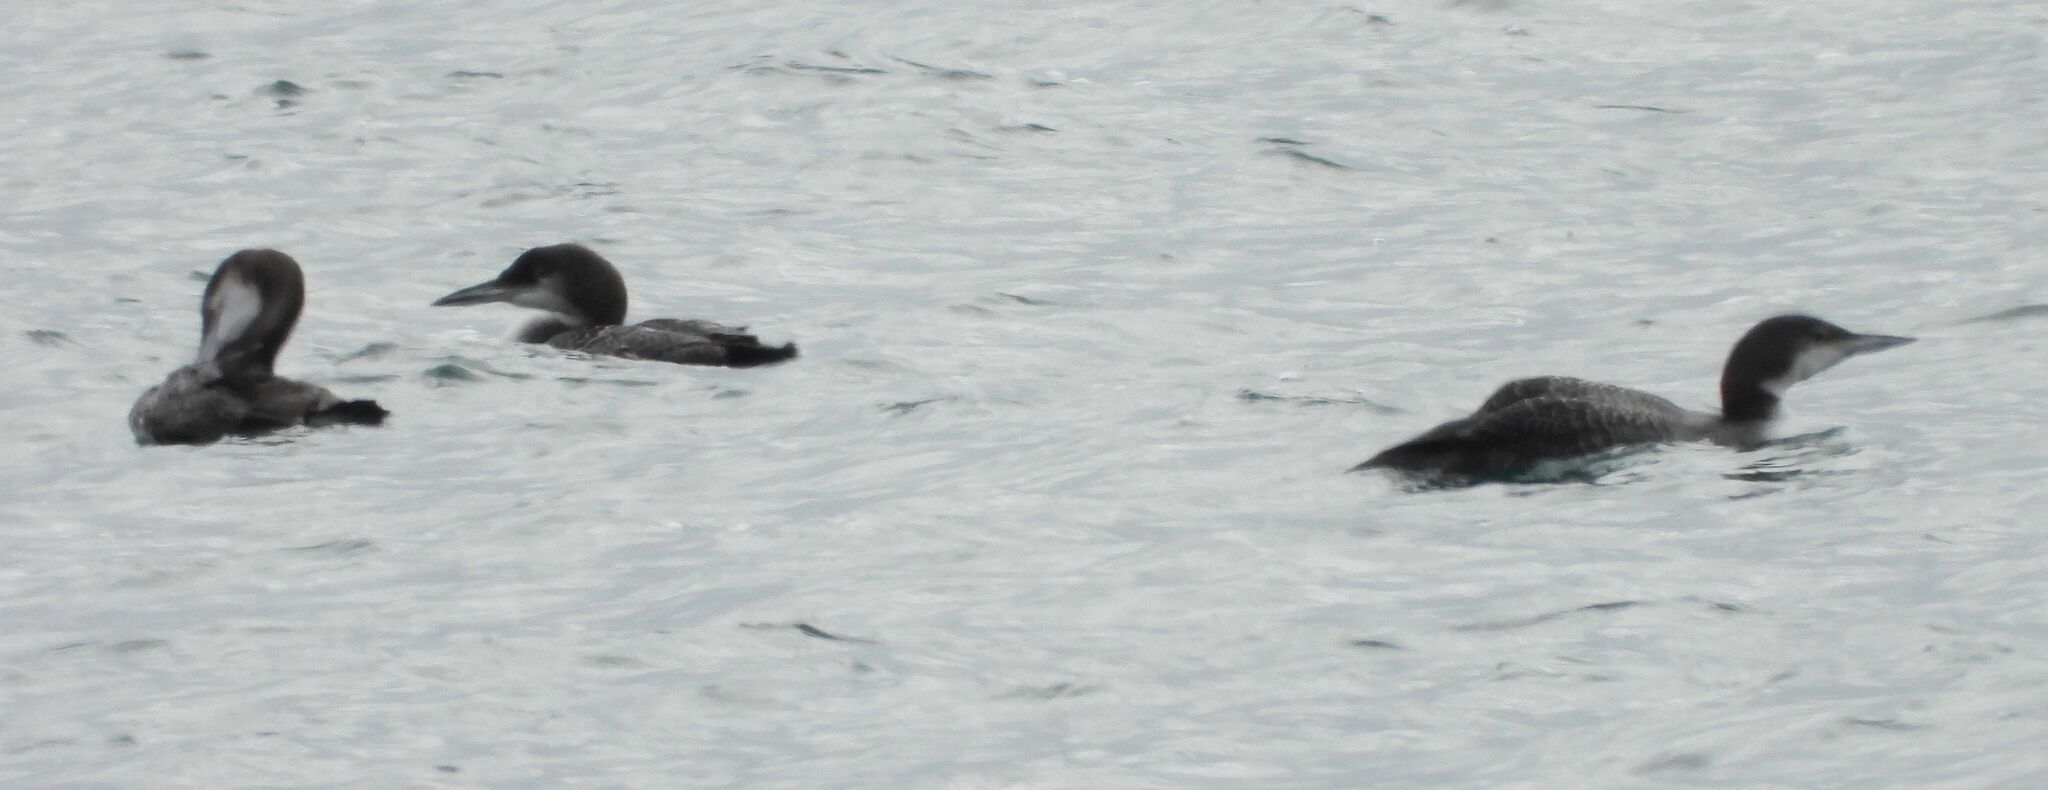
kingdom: Animalia
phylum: Chordata
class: Aves
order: Gaviiformes
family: Gaviidae
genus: Gavia
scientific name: Gavia immer
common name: Common loon
